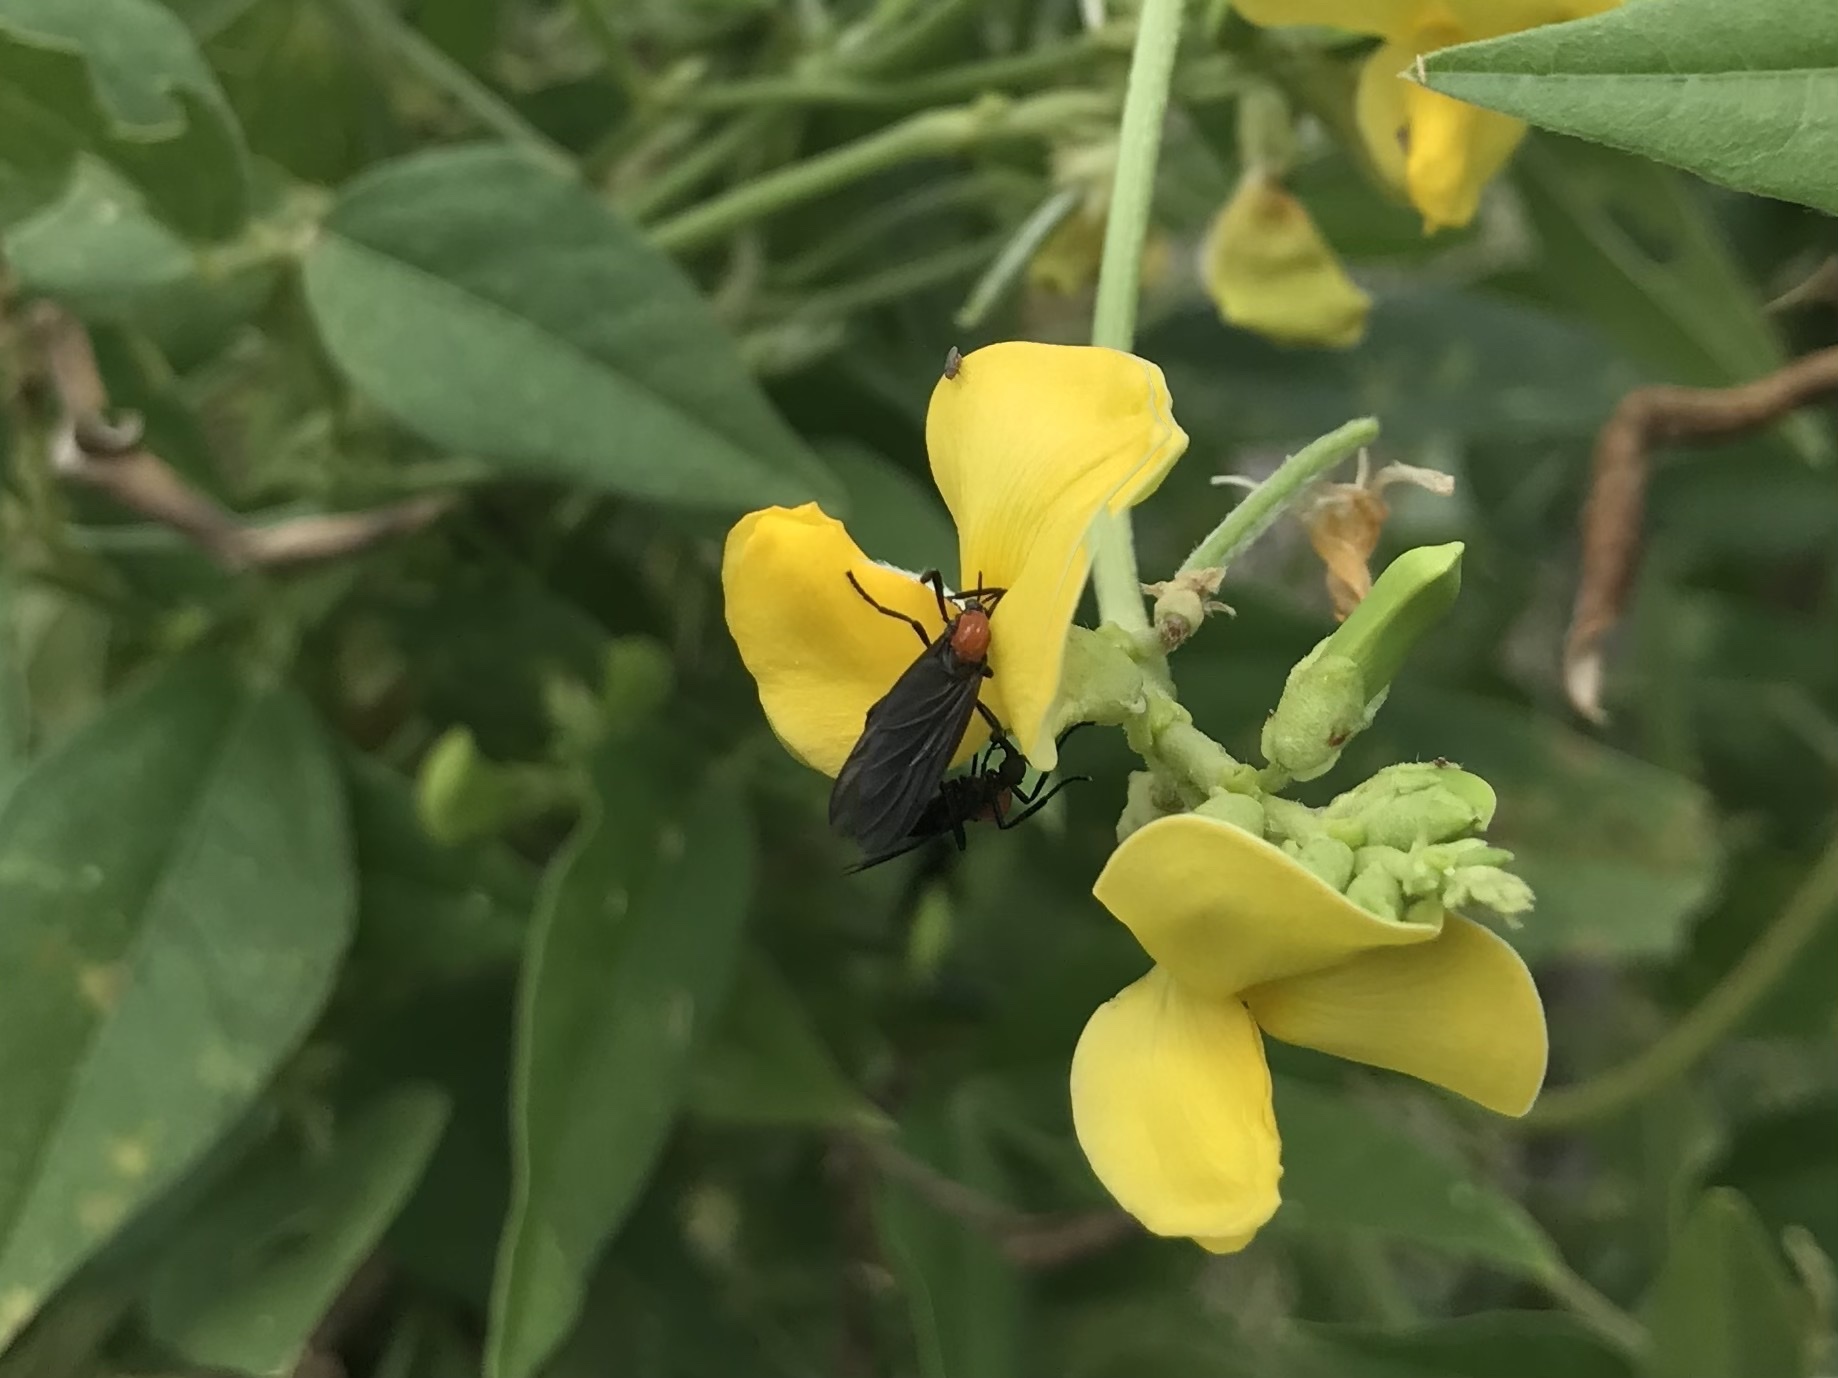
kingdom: Animalia
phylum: Arthropoda
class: Insecta
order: Diptera
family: Bibionidae
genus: Plecia
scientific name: Plecia nearctica
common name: March fly
